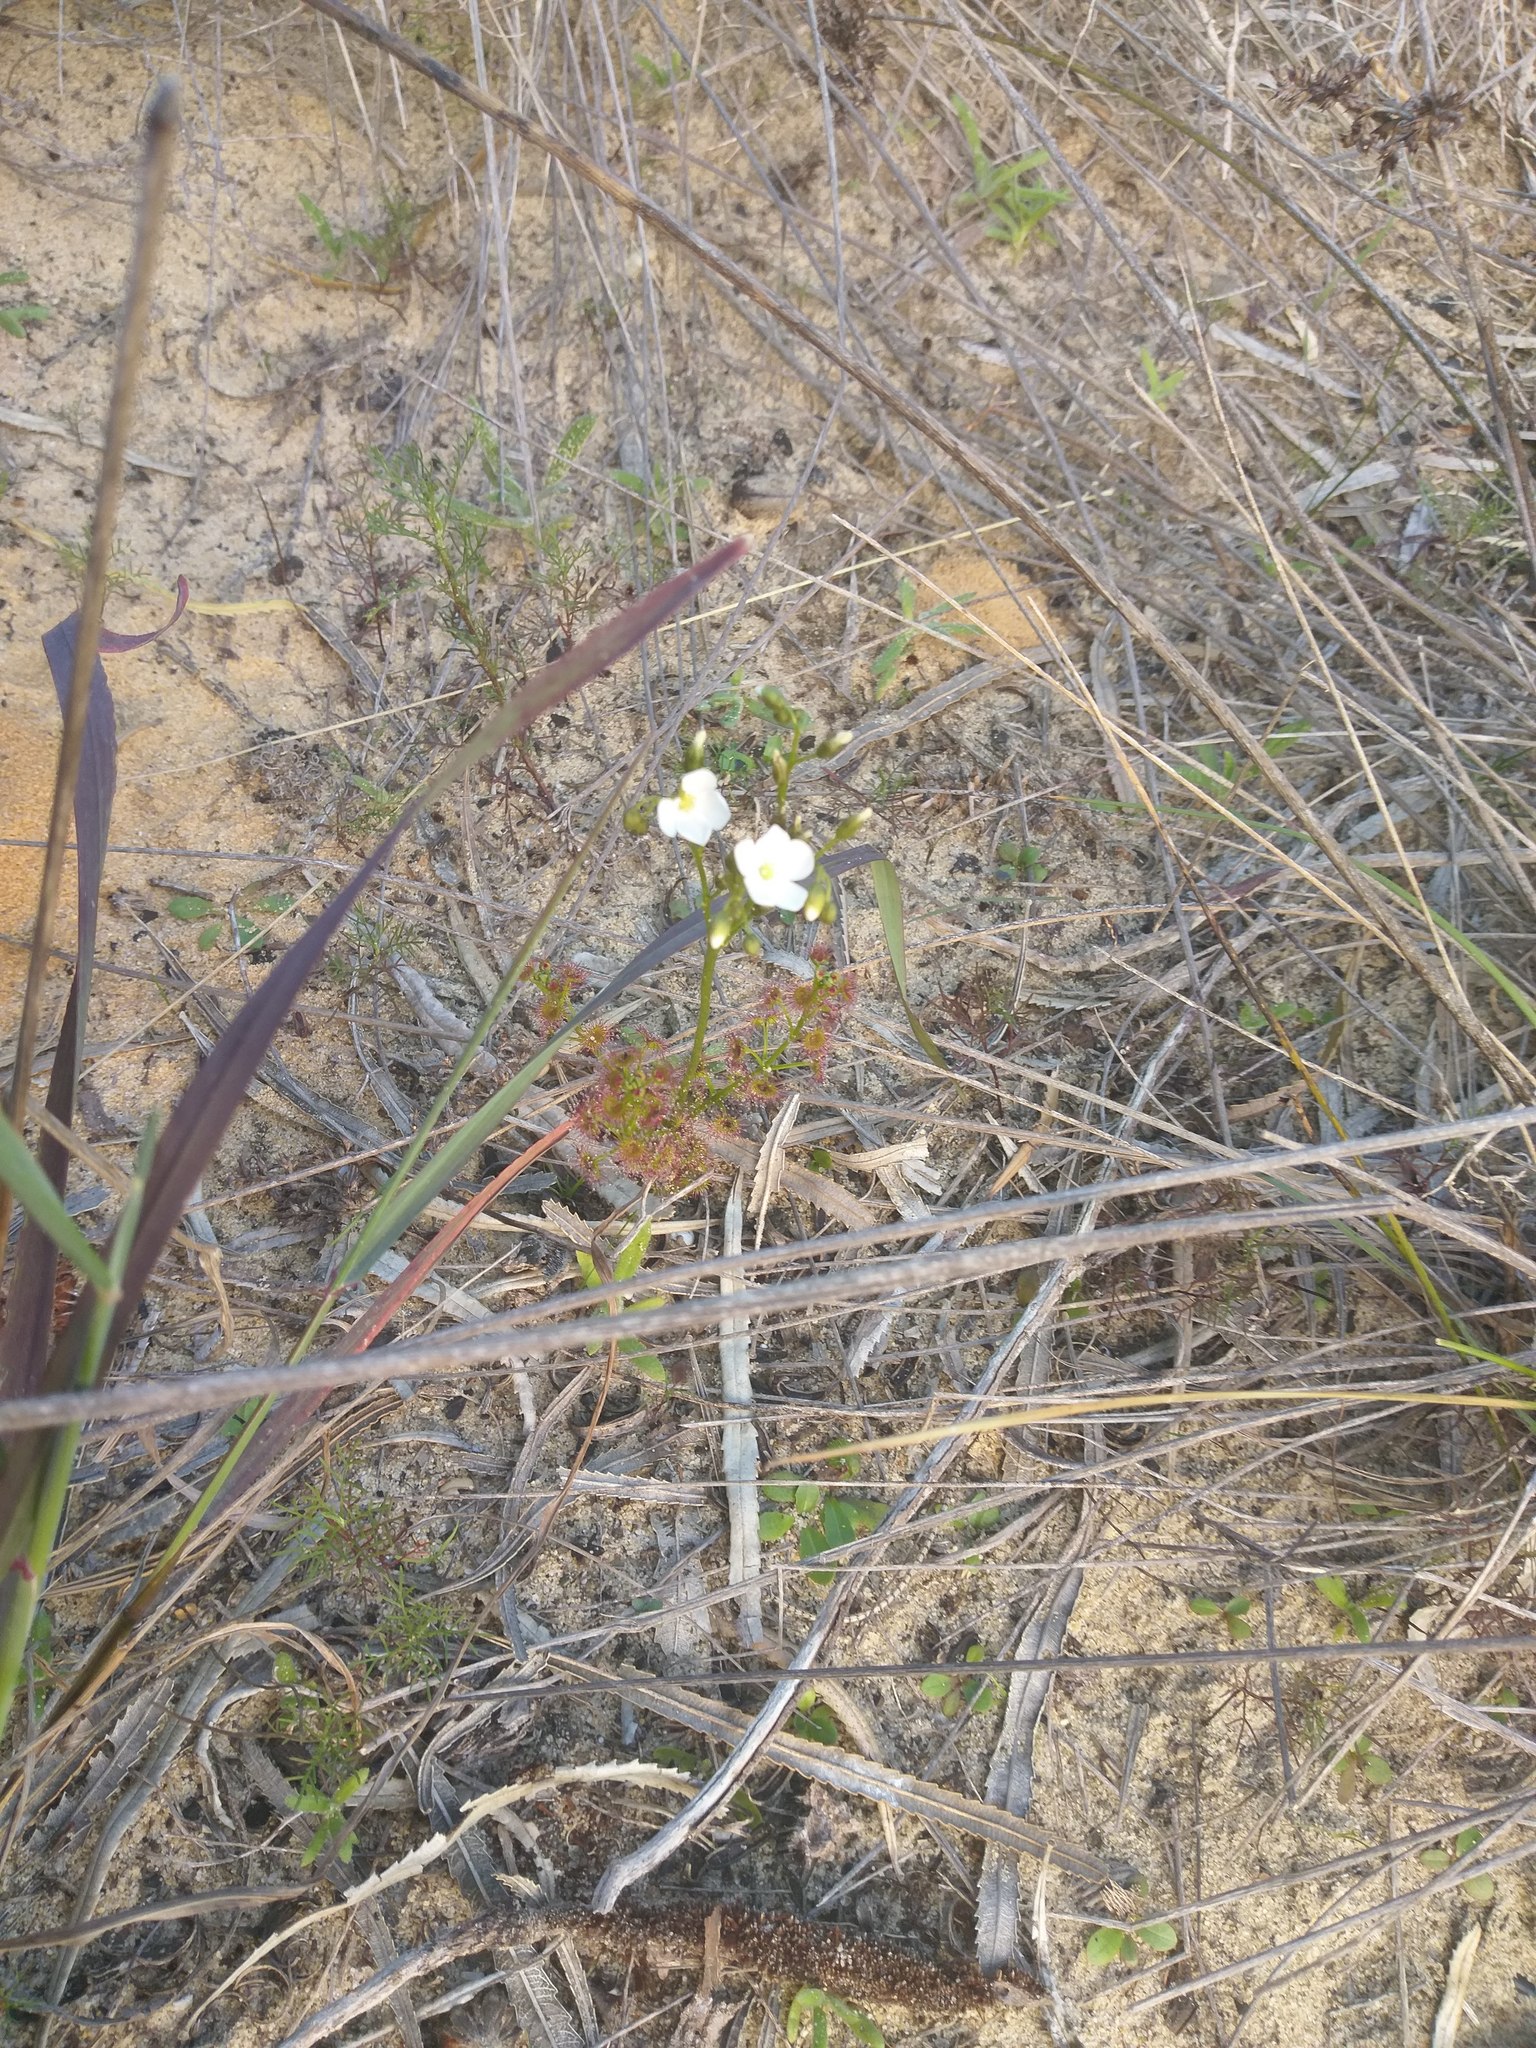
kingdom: Plantae
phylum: Tracheophyta
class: Magnoliopsida
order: Caryophyllales
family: Droseraceae
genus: Drosera
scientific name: Drosera stolonifera
